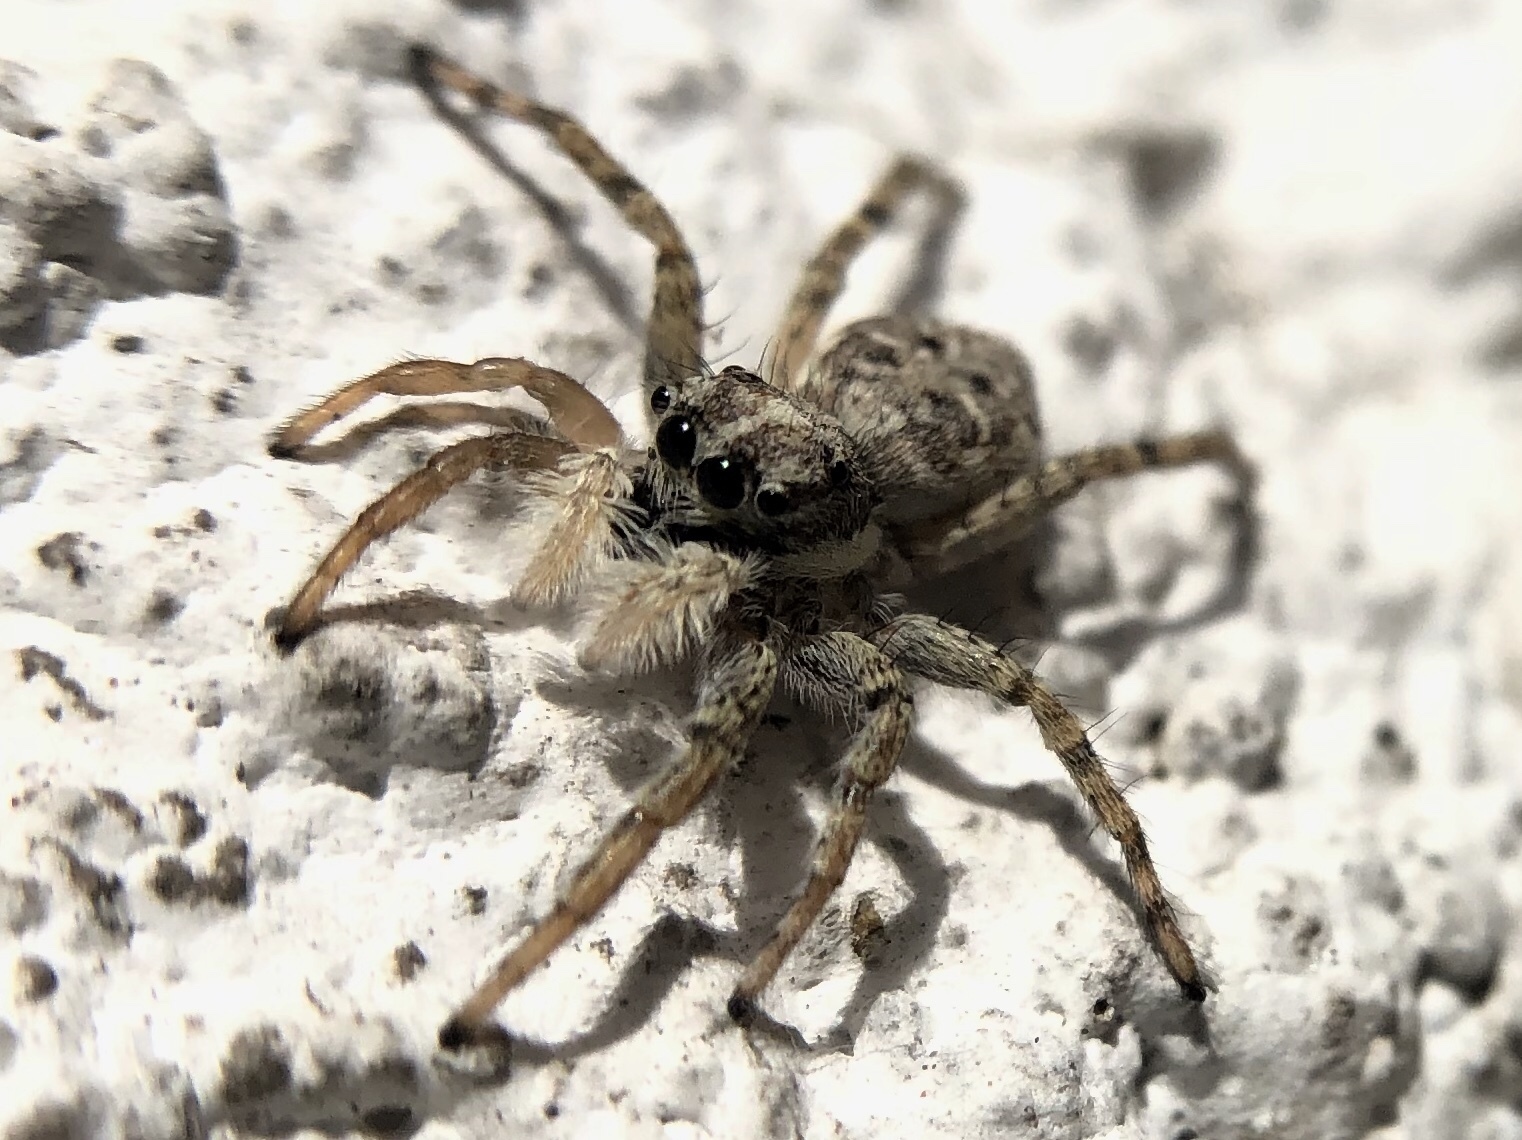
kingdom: Animalia
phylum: Arthropoda
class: Arachnida
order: Araneae
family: Salticidae
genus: Menemerus
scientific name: Menemerus semilimbatus
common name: Jumping spider
